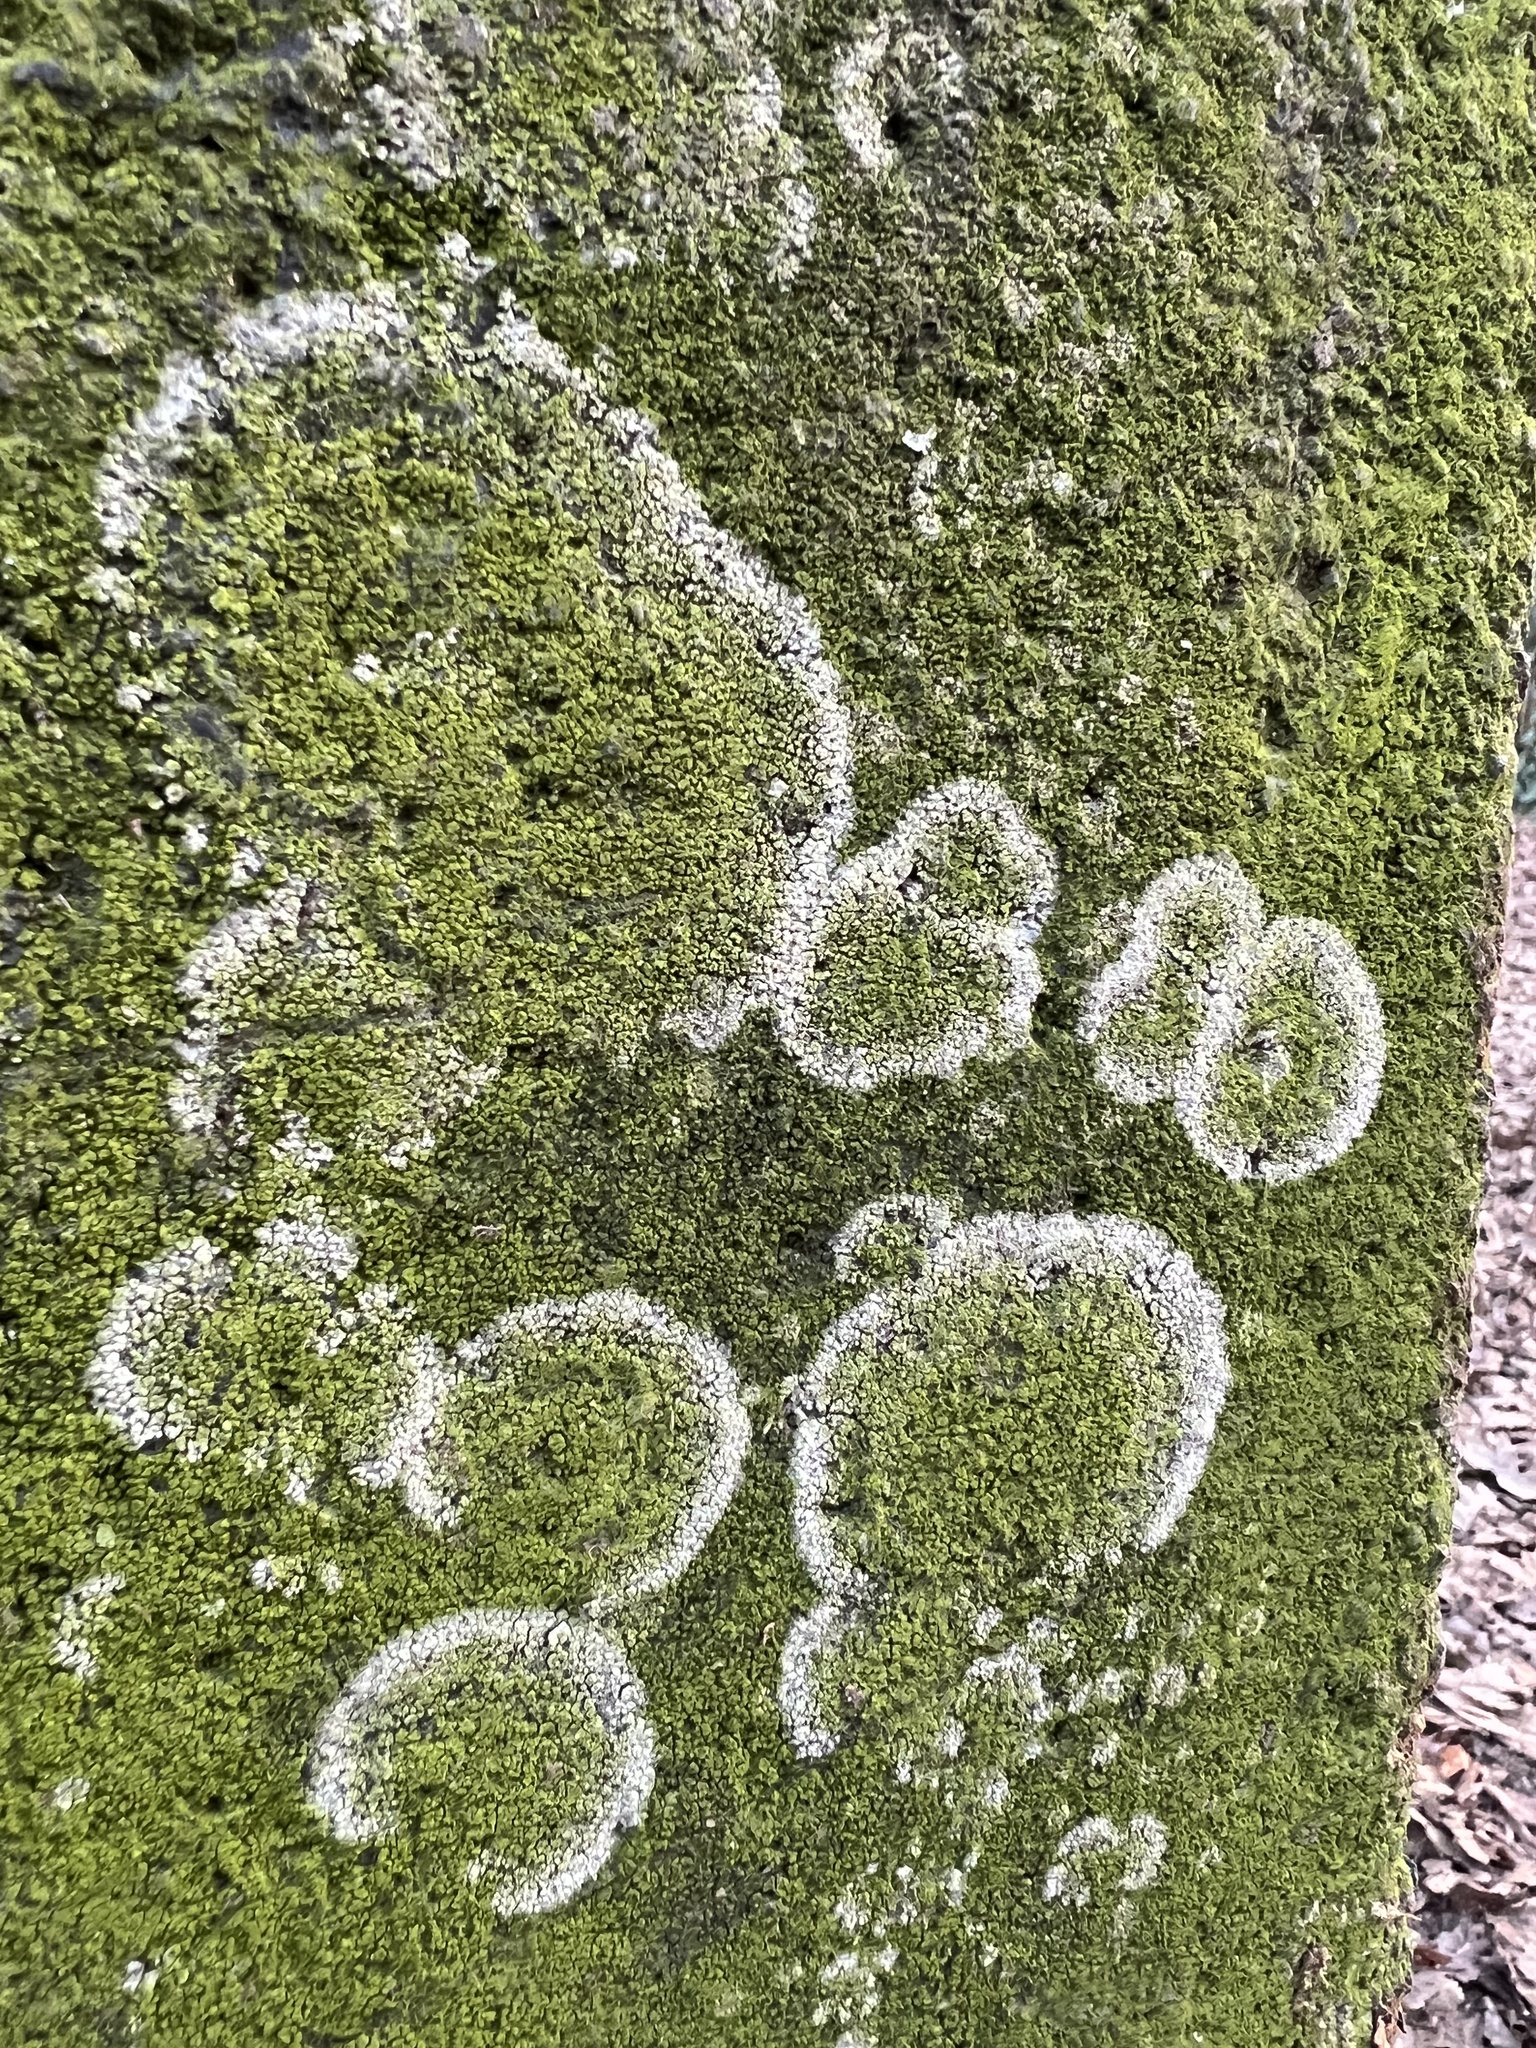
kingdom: Fungi
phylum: Basidiomycota
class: Agaricomycetes
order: Atheliales
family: Atheliaceae
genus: Athelia
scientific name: Athelia arachnoidea
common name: Candelabra duster
